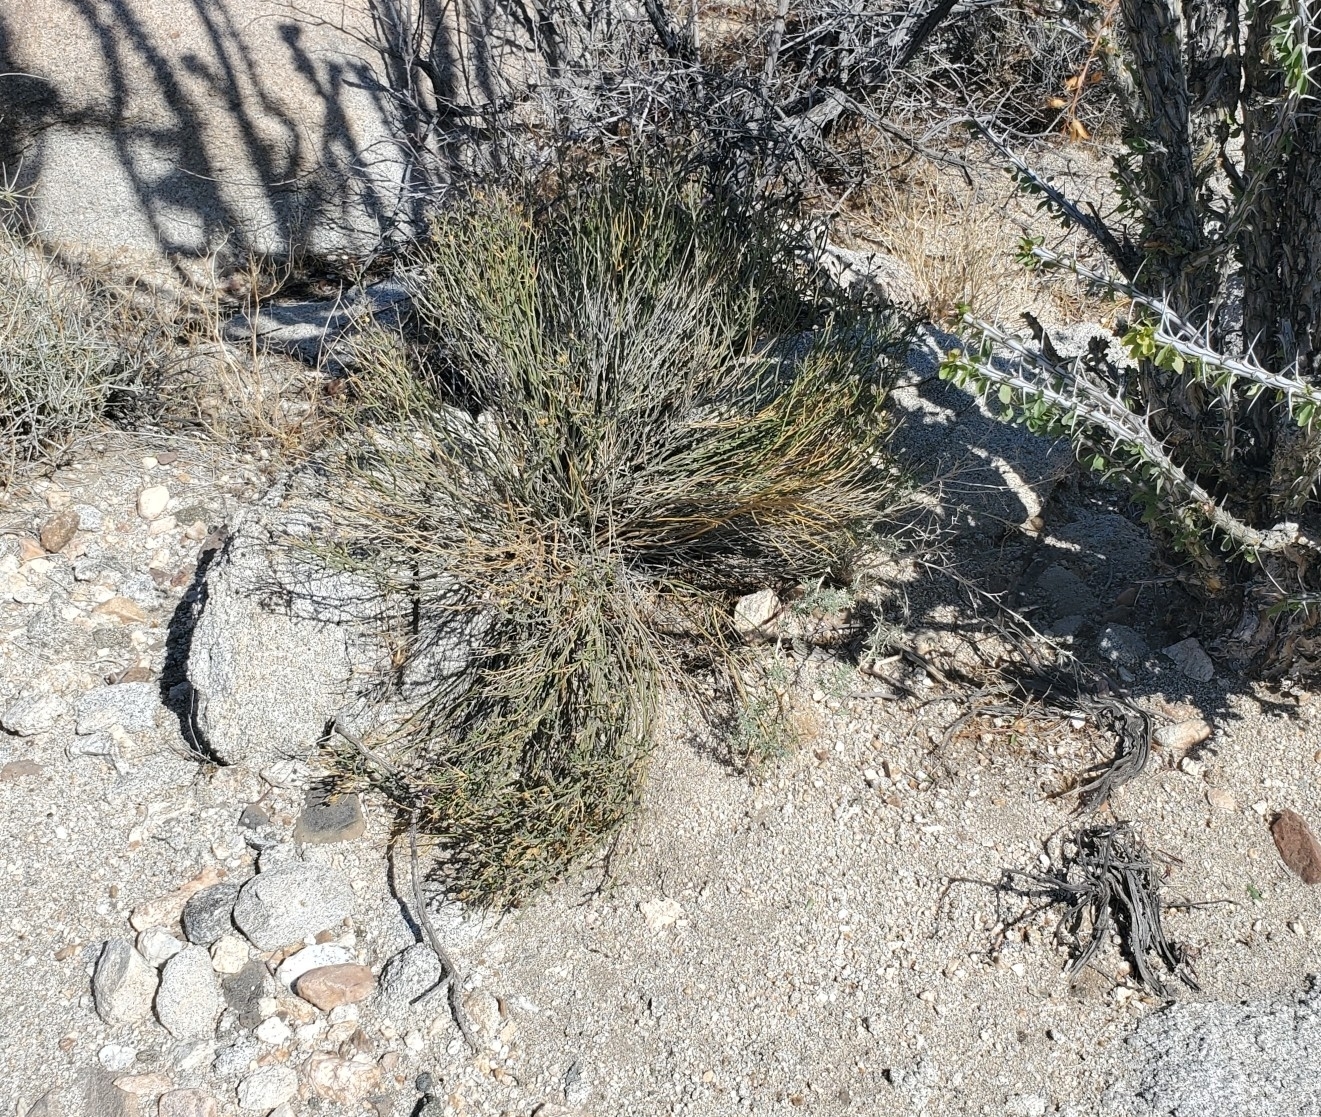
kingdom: Plantae
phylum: Tracheophyta
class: Magnoliopsida
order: Sapindales
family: Rutaceae
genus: Thamnosma
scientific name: Thamnosma montana
